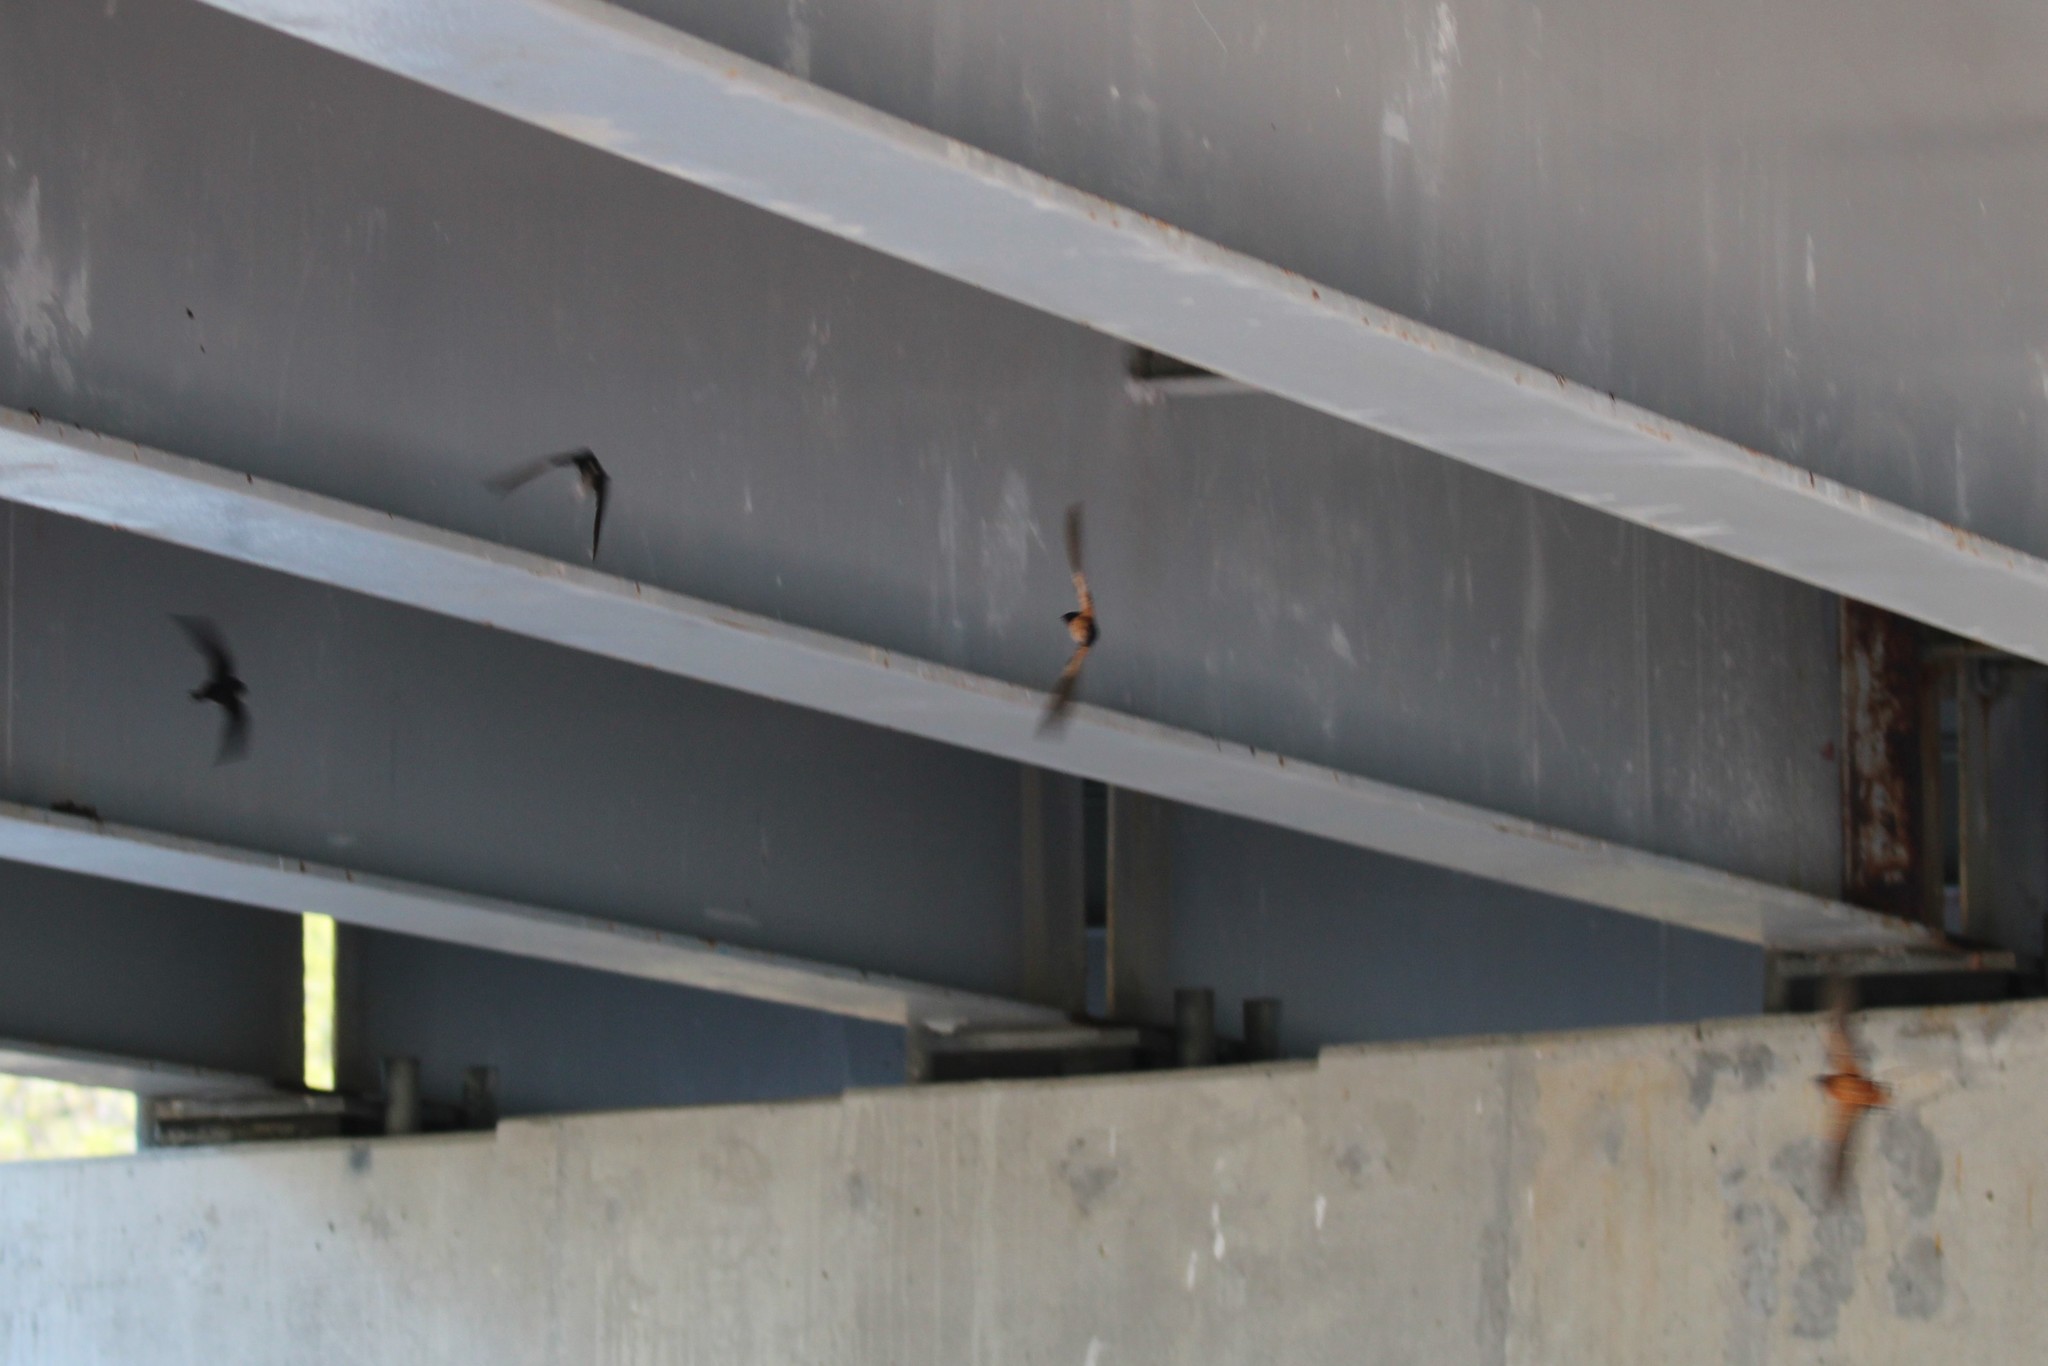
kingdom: Animalia
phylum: Chordata
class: Aves
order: Passeriformes
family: Hirundinidae
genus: Petrochelidon
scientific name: Petrochelidon pyrrhonota
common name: American cliff swallow
